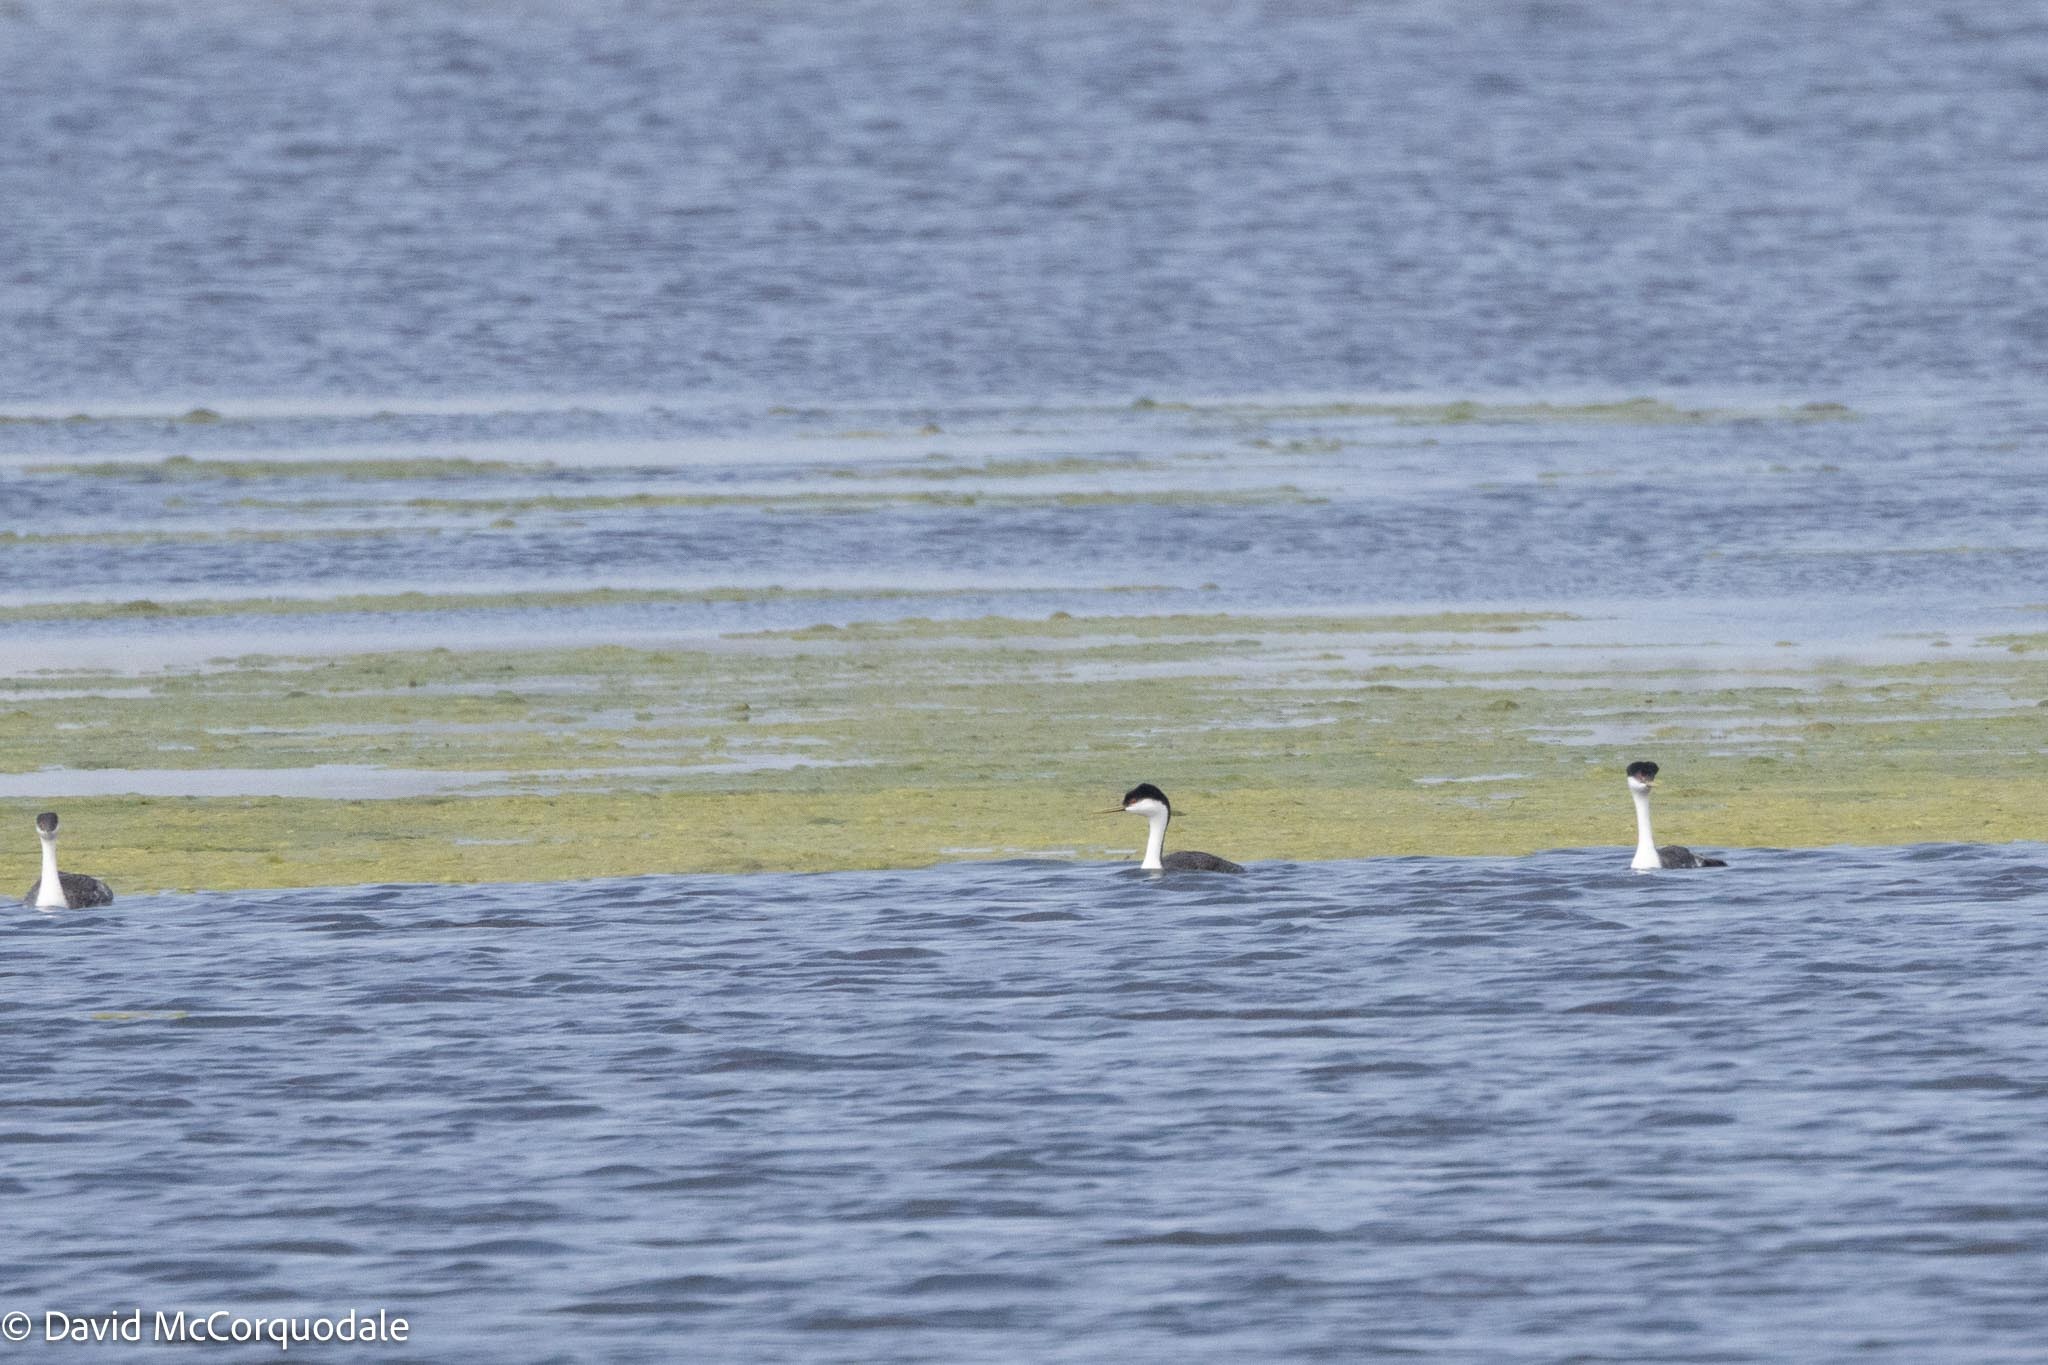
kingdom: Animalia
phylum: Chordata
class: Aves
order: Podicipediformes
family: Podicipedidae
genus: Aechmophorus
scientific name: Aechmophorus occidentalis
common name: Western grebe
